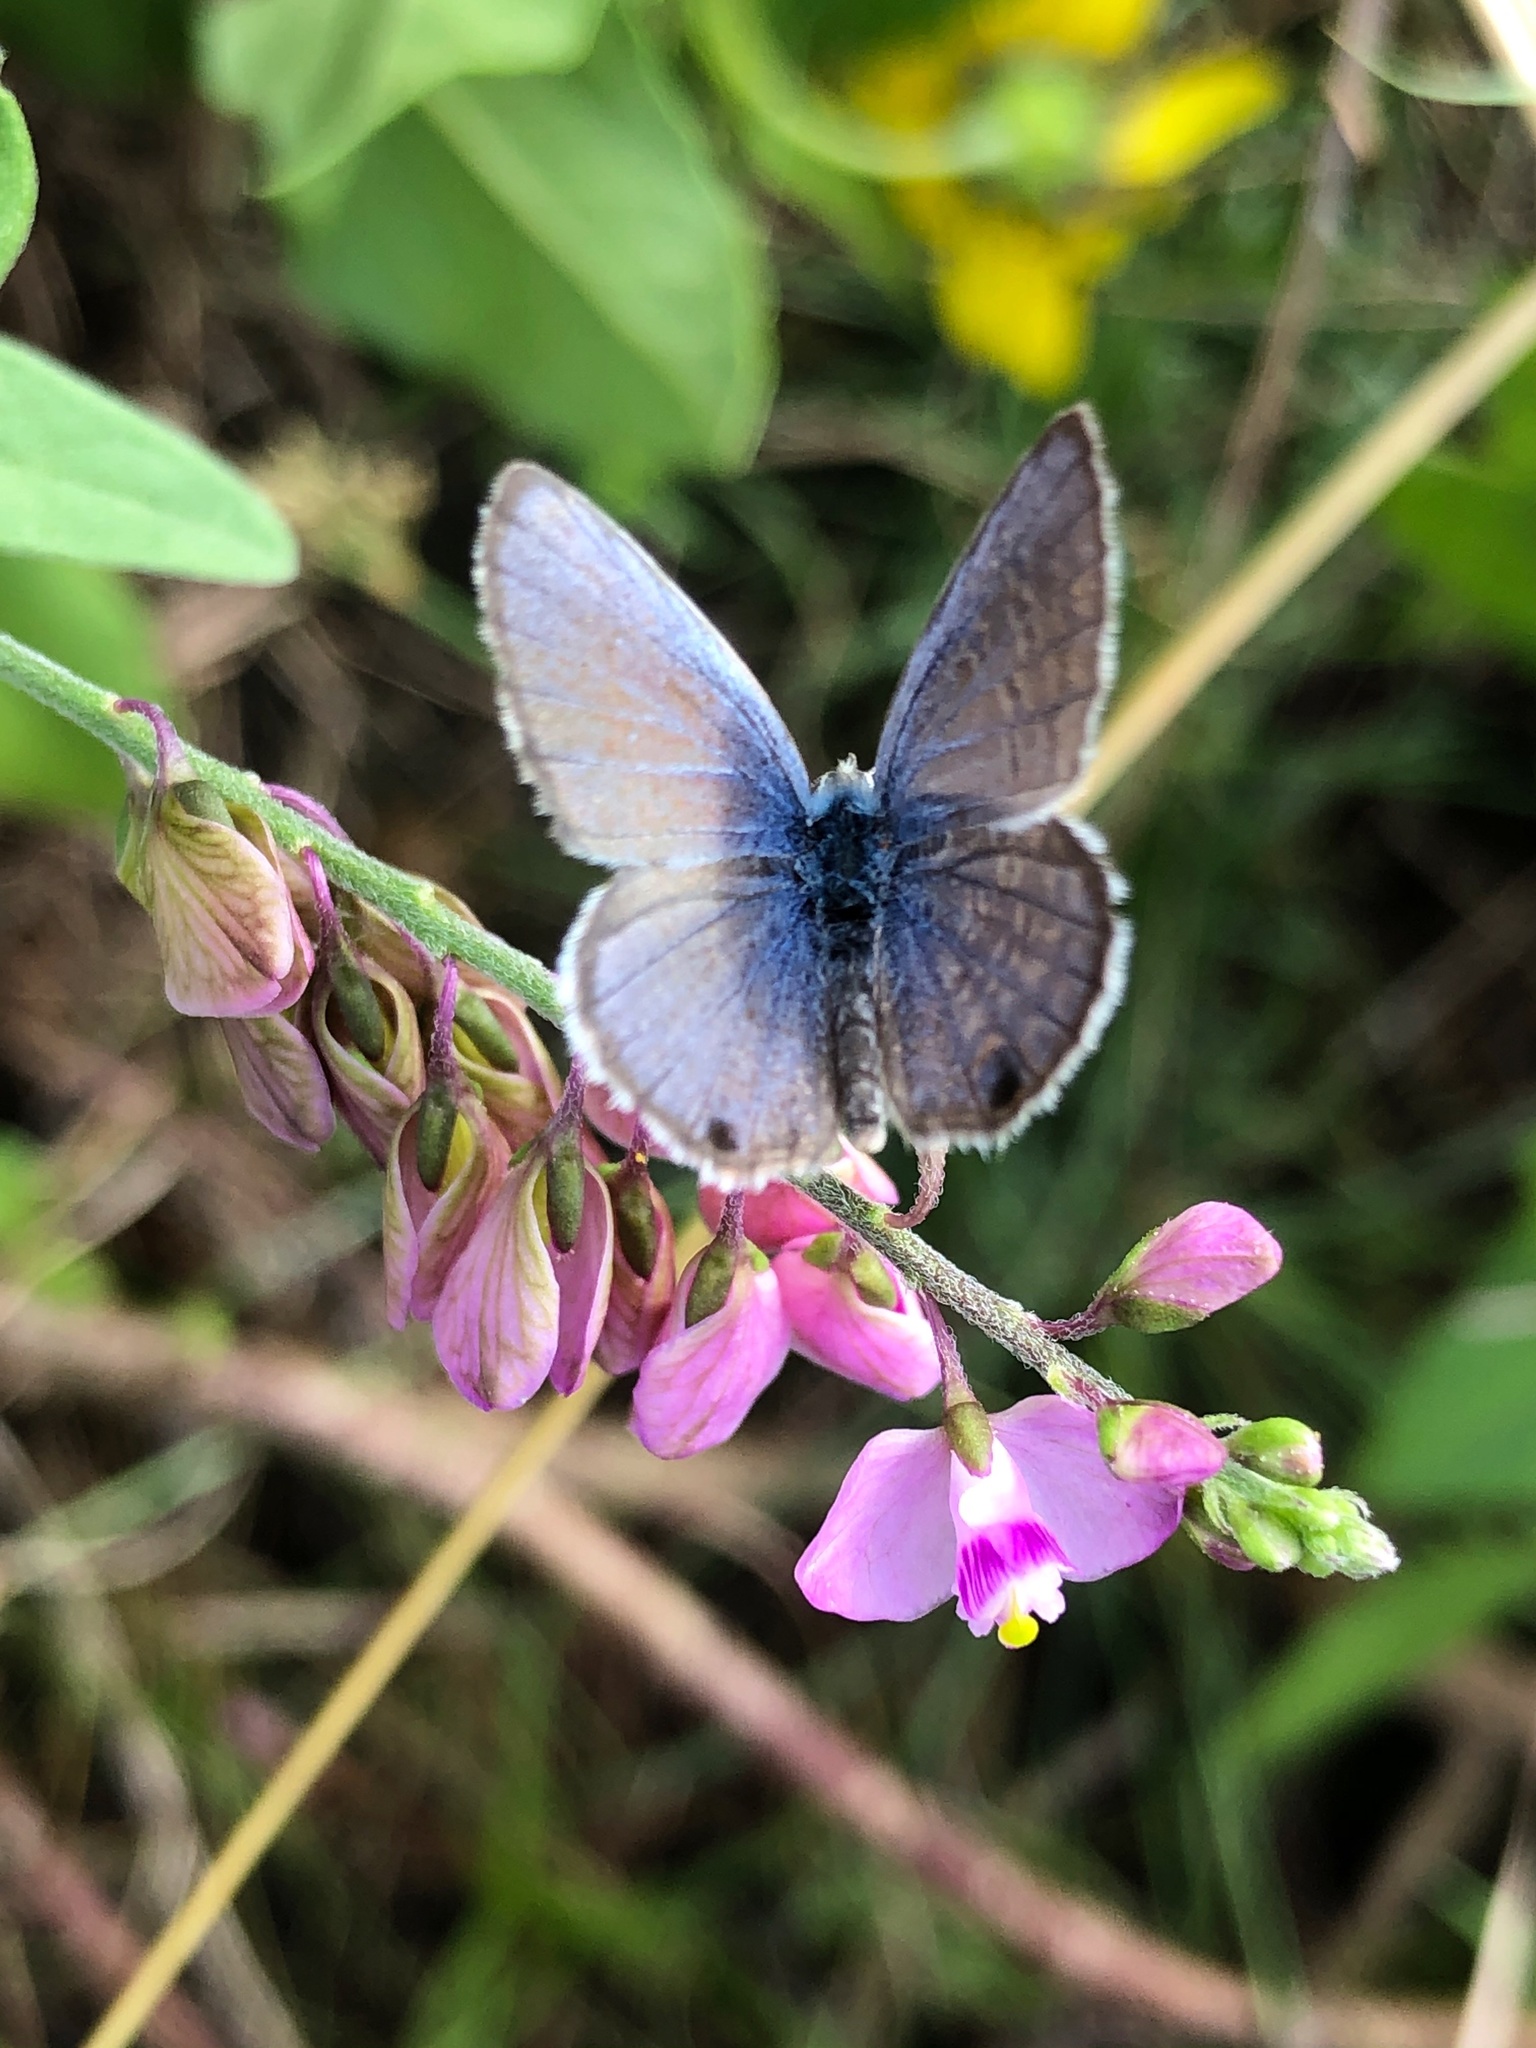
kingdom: Animalia
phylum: Arthropoda
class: Insecta
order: Lepidoptera
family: Lycaenidae
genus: Hemiargus
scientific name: Hemiargus ceraunus
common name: Ceraunus blue
